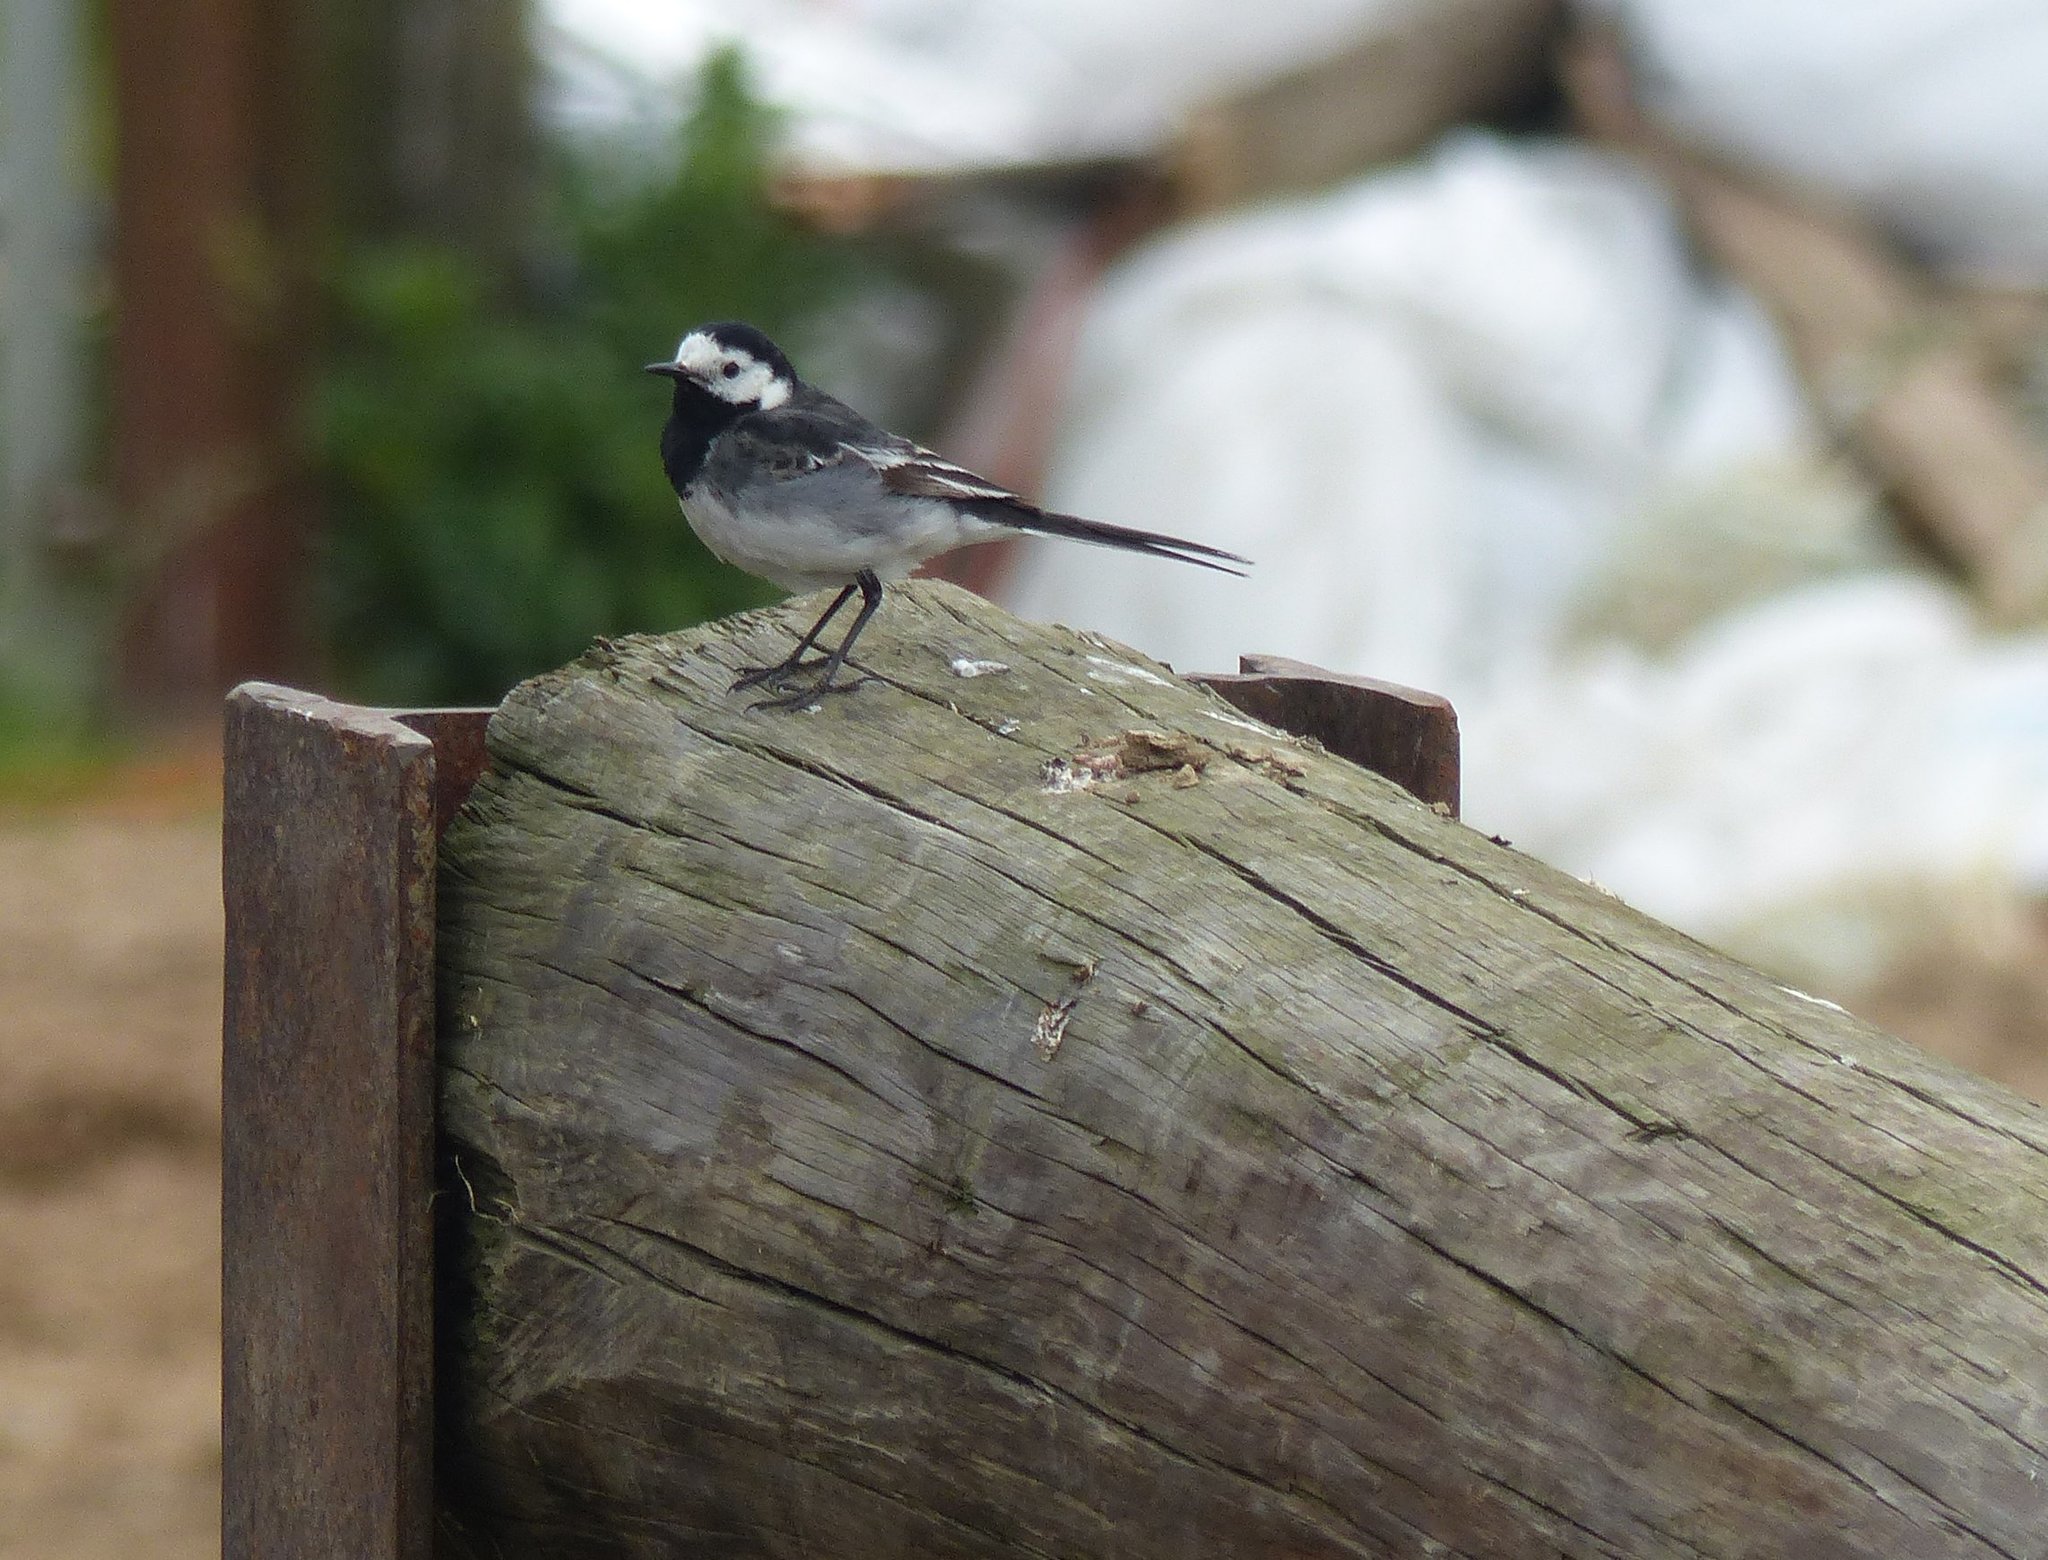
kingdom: Animalia
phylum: Chordata
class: Aves
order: Passeriformes
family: Motacillidae
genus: Motacilla
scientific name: Motacilla alba
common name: White wagtail
